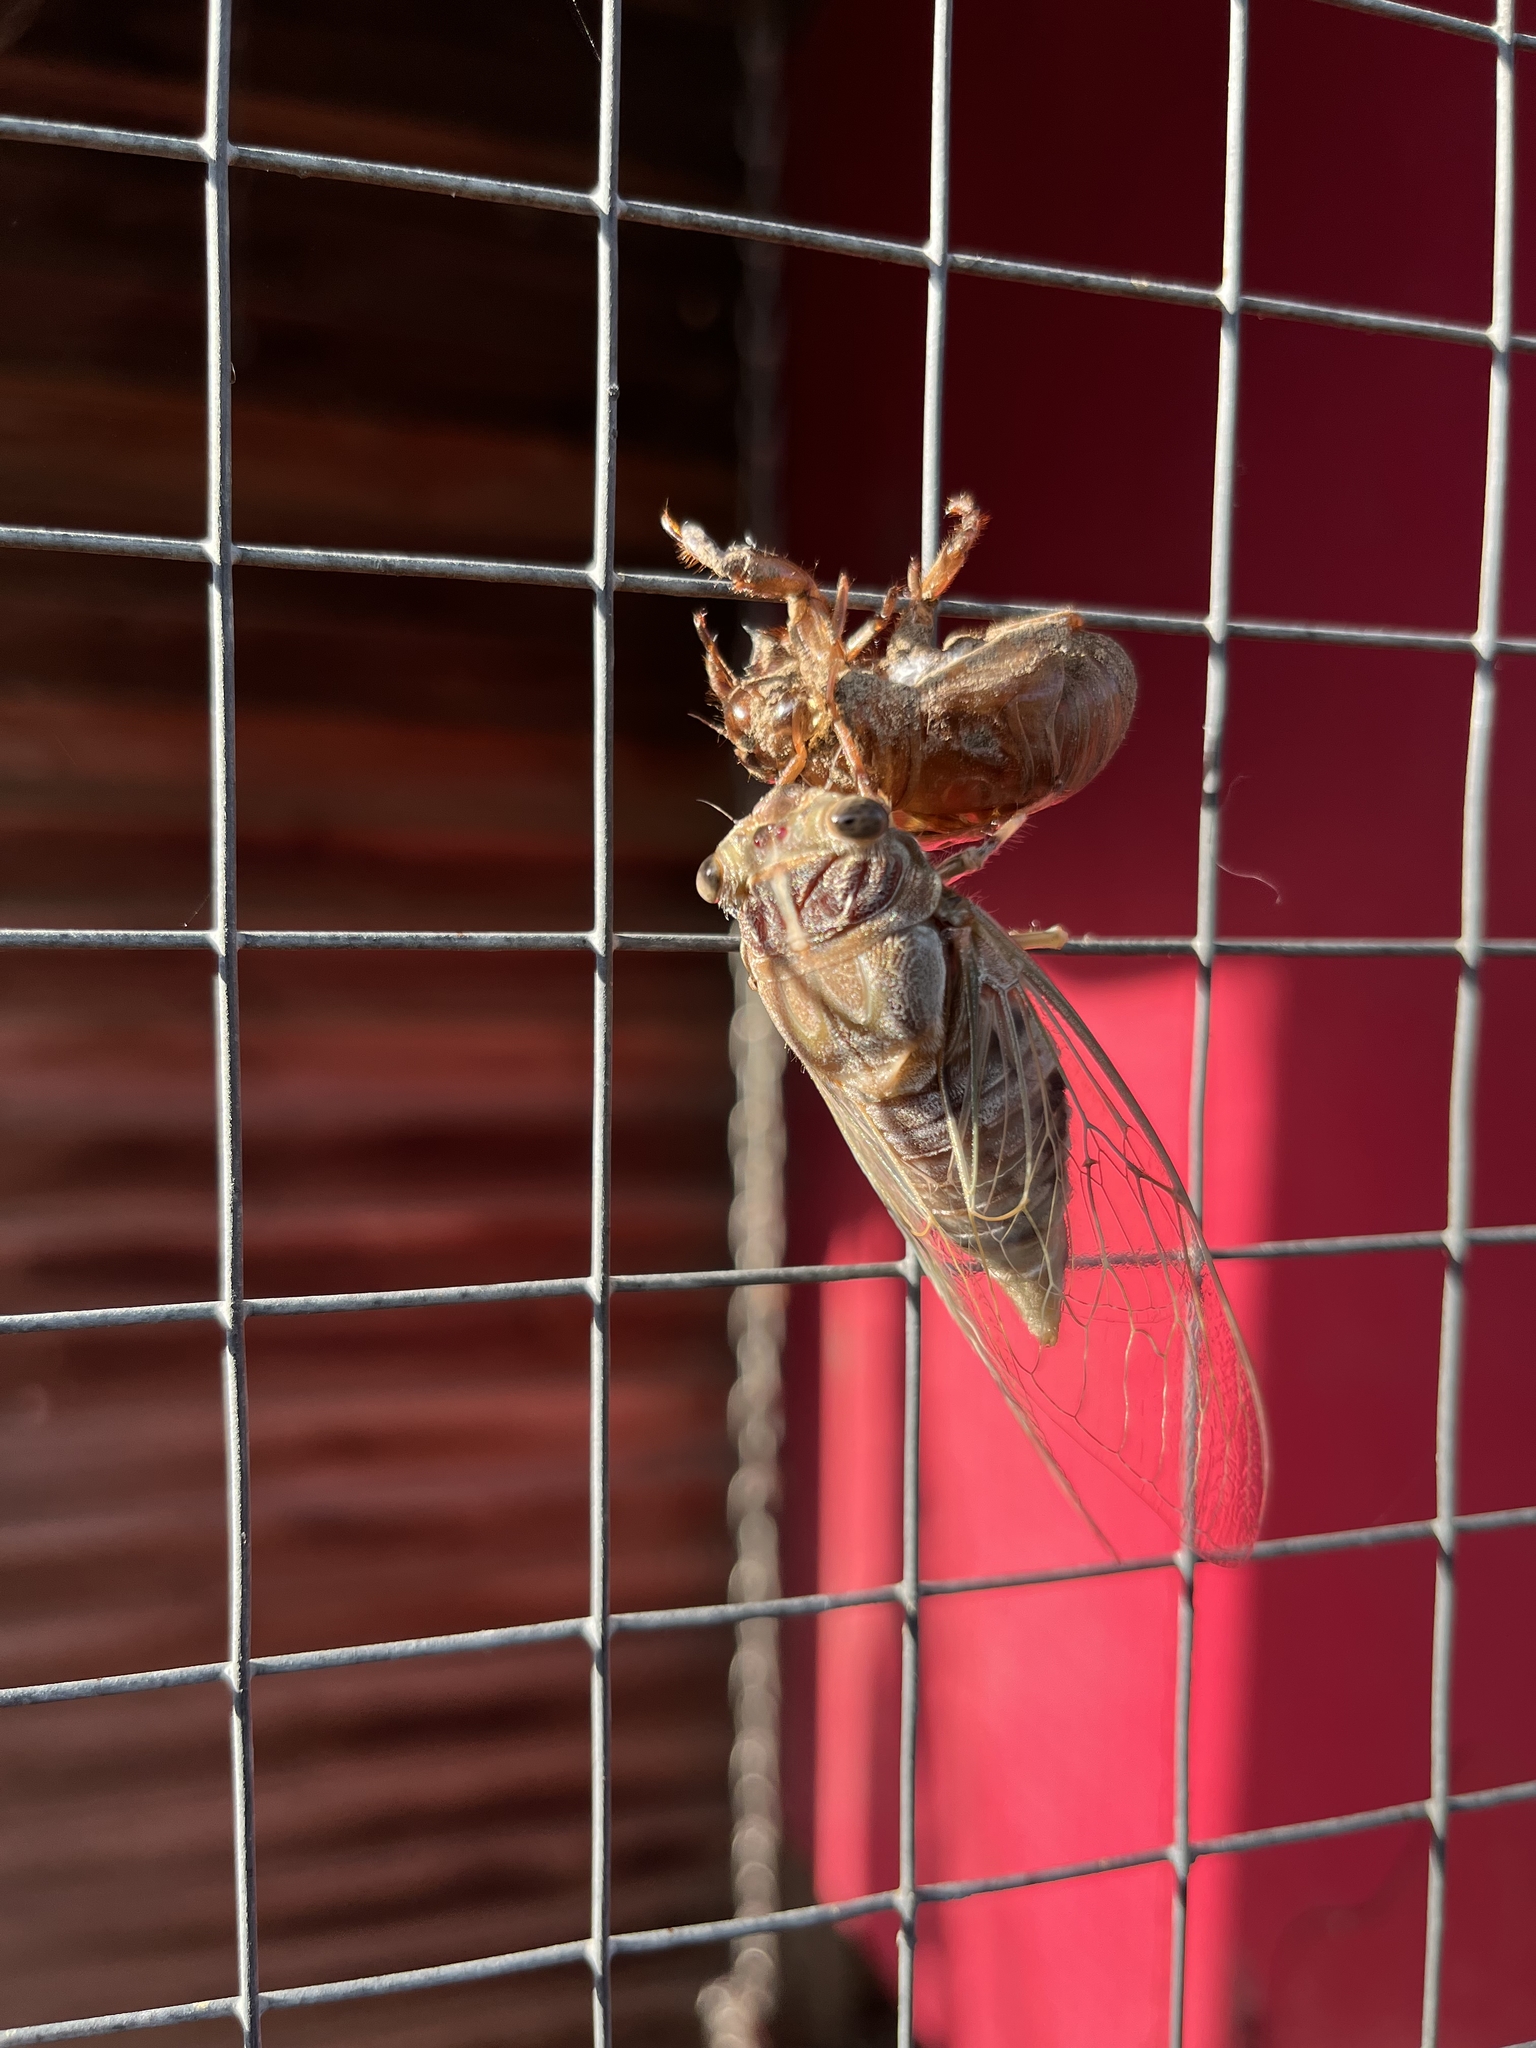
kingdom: Animalia
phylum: Arthropoda
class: Insecta
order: Hemiptera
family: Cicadidae
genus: Henicopsaltria
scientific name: Henicopsaltria eydouxii
